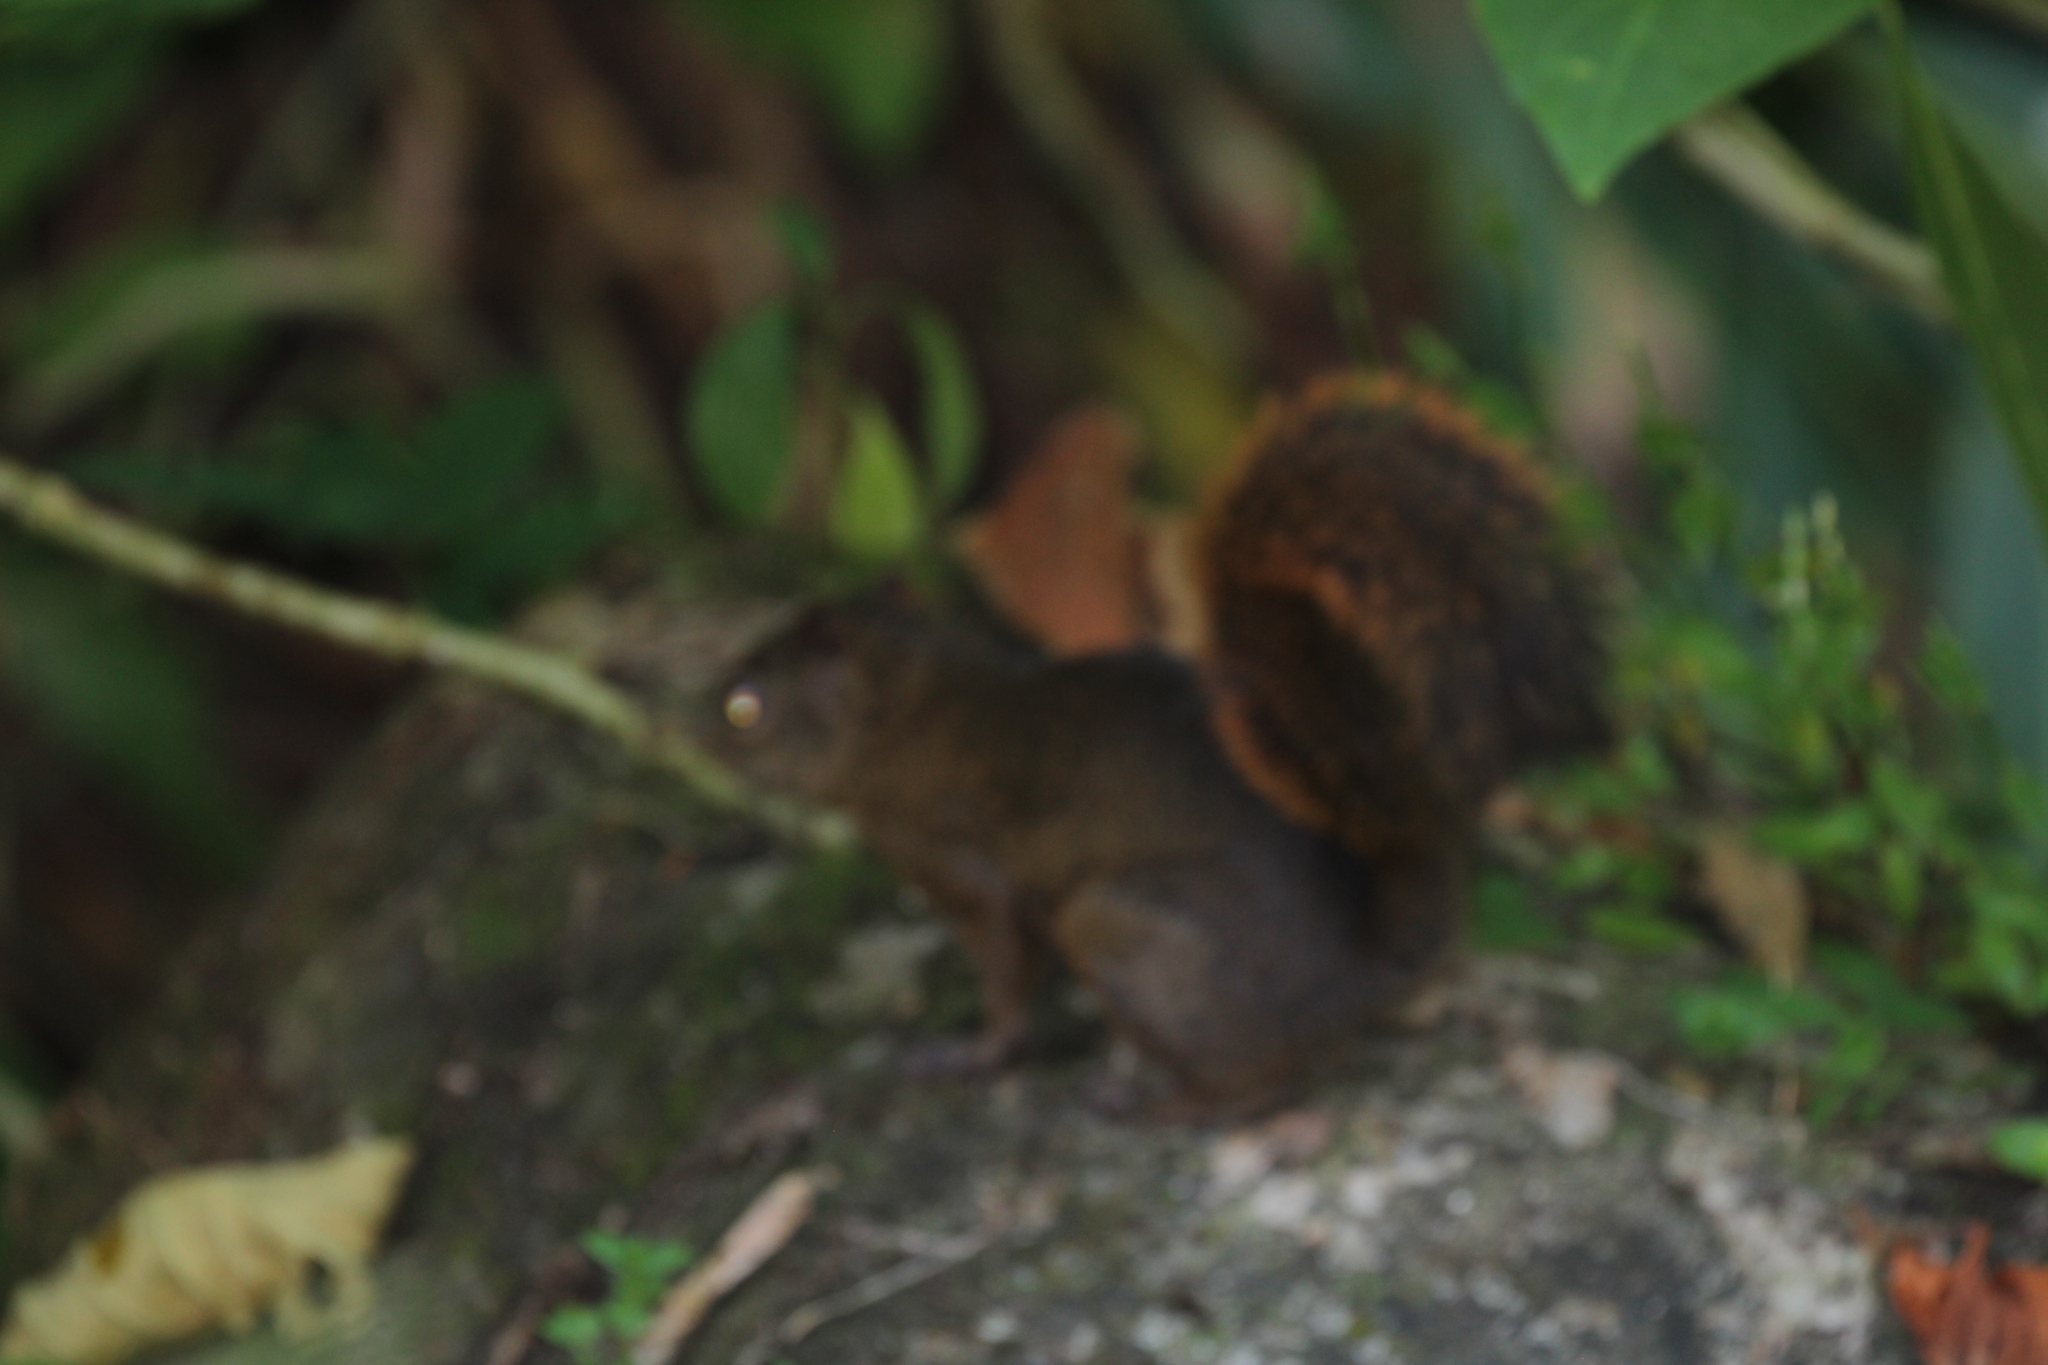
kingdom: Animalia
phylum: Chordata
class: Mammalia
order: Rodentia
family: Sciuridae
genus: Sciurus
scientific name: Sciurus granatensis
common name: Red-tailed squirrel
